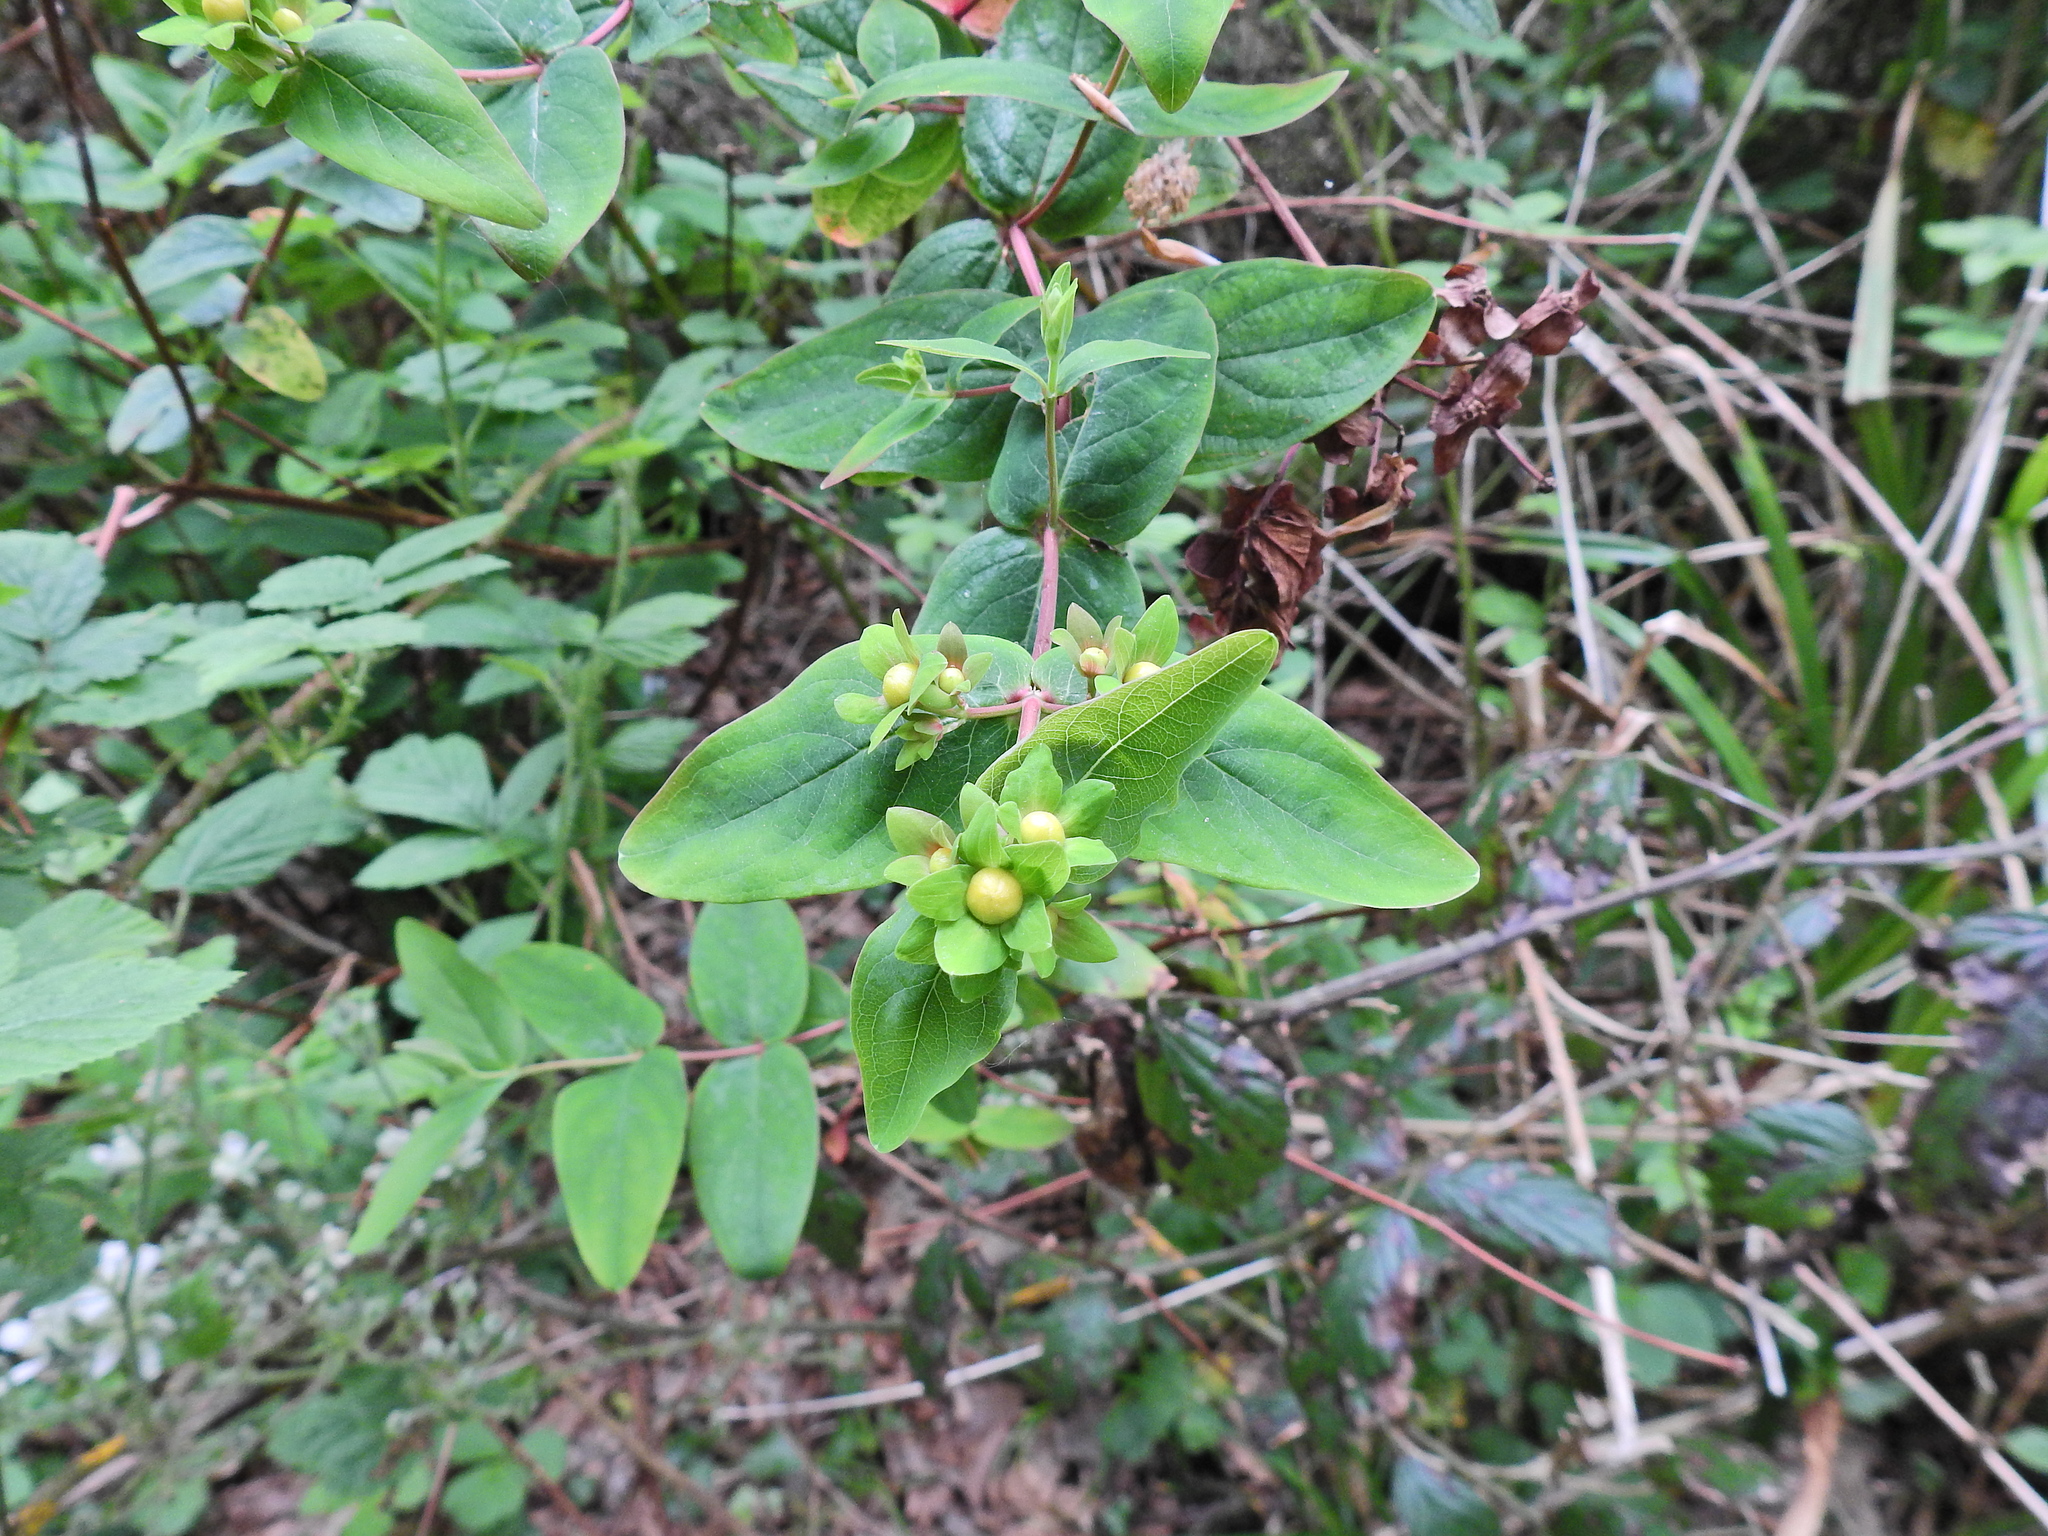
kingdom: Plantae
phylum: Tracheophyta
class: Magnoliopsida
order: Malpighiales
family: Hypericaceae
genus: Hypericum
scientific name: Hypericum androsaemum
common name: Sweet-amber
